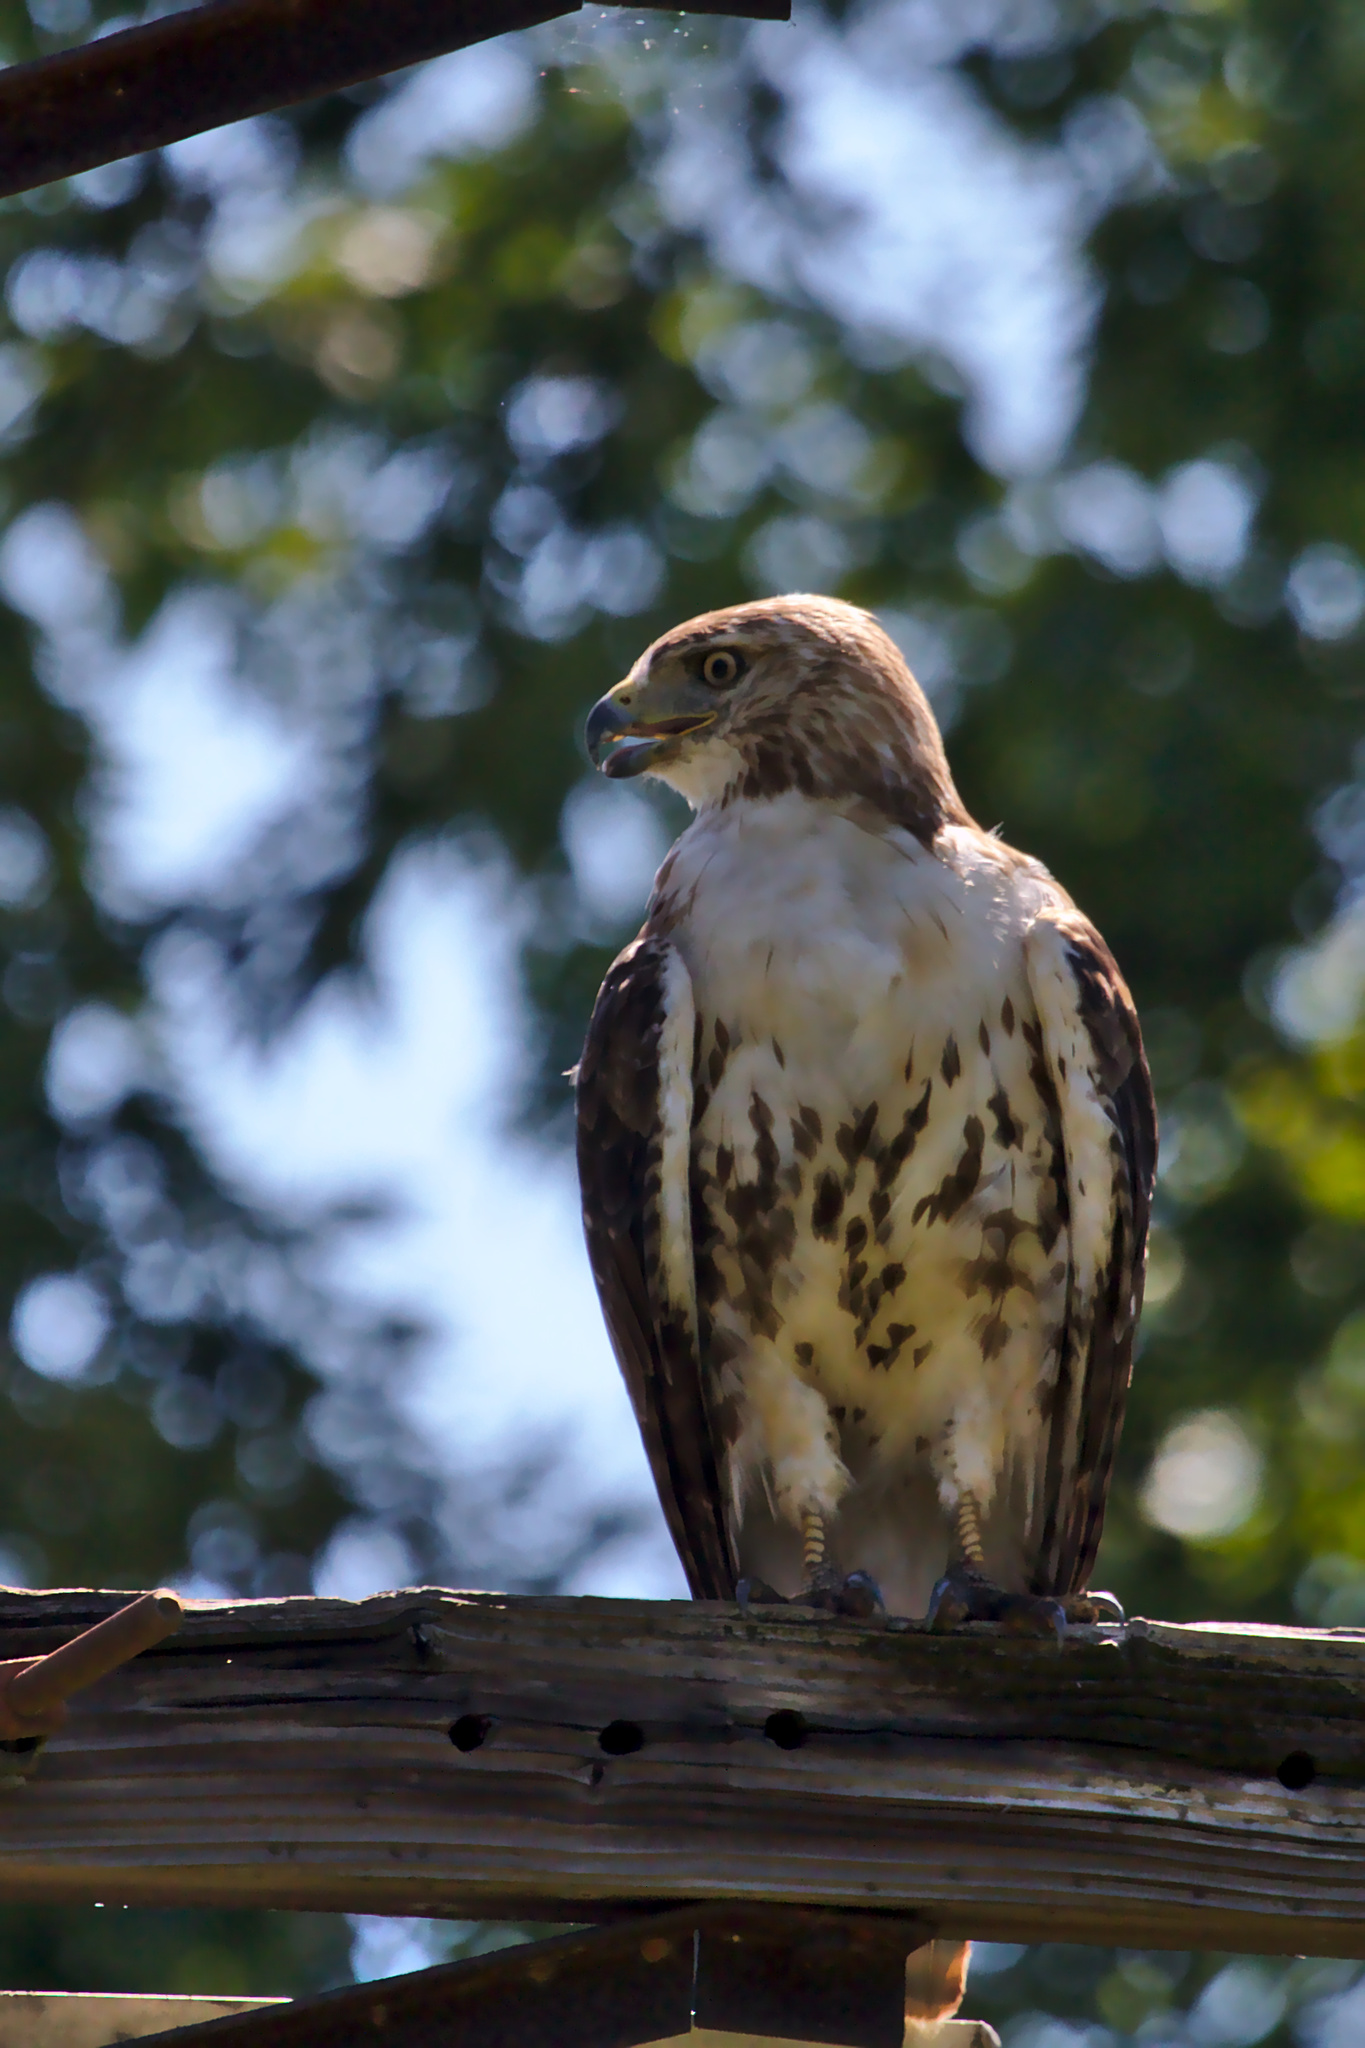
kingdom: Animalia
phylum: Chordata
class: Aves
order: Accipitriformes
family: Accipitridae
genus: Buteo
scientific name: Buteo jamaicensis
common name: Red-tailed hawk
